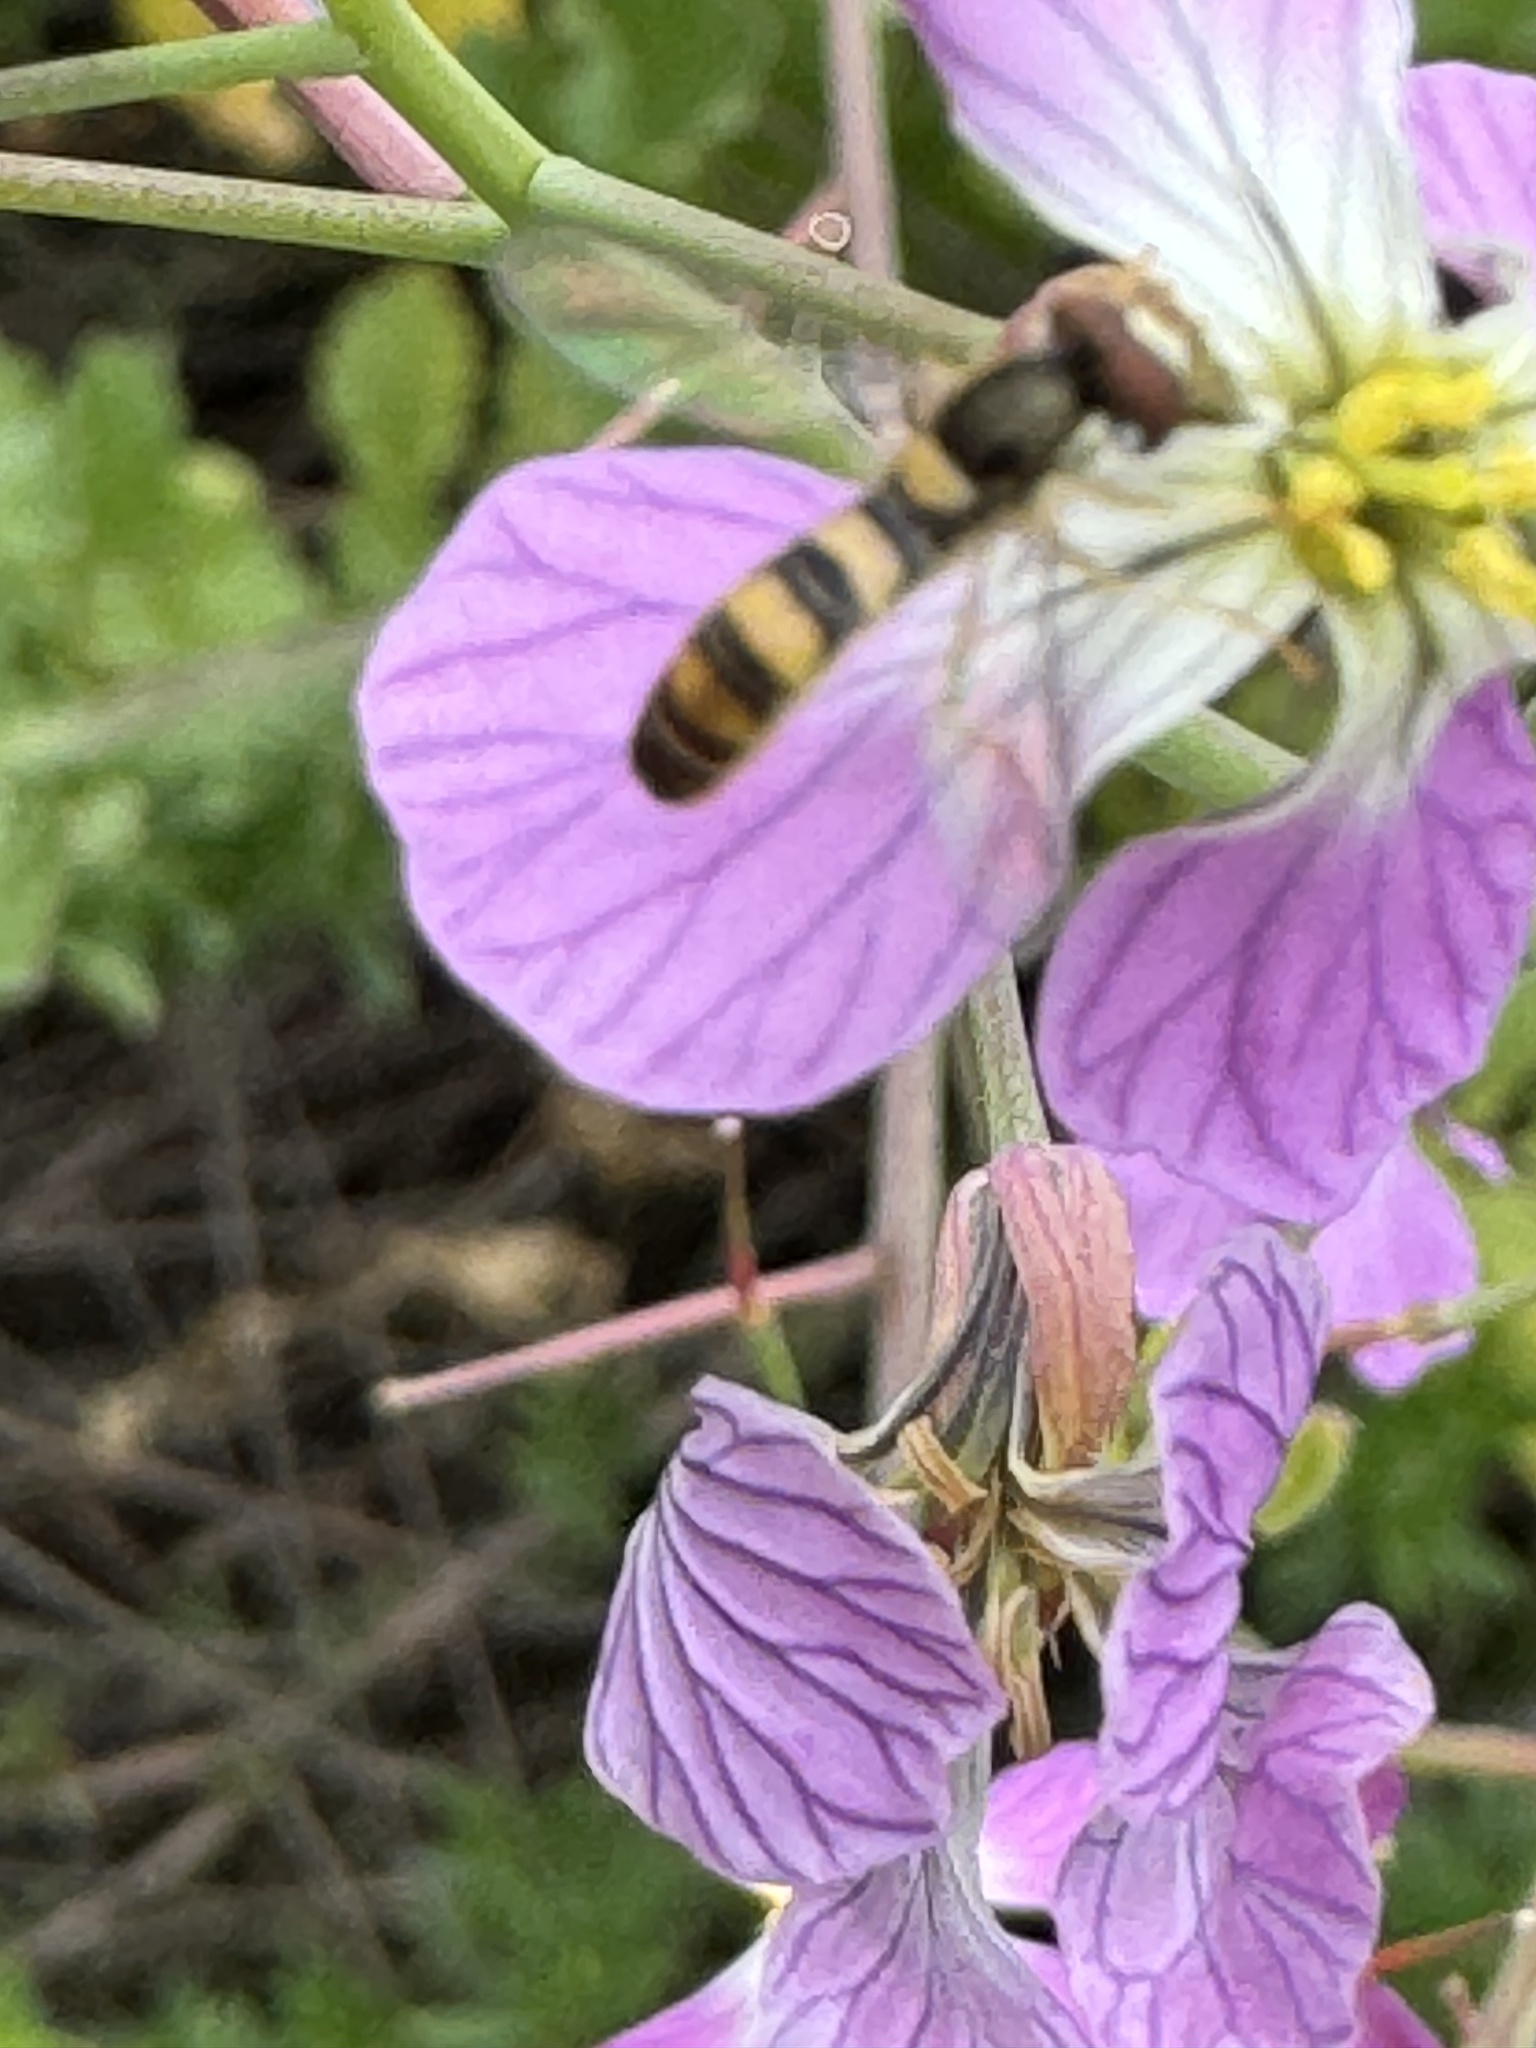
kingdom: Animalia
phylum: Arthropoda
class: Insecta
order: Diptera
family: Syrphidae
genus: Sphaerophoria
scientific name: Sphaerophoria contigua
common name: Tufted globetail
